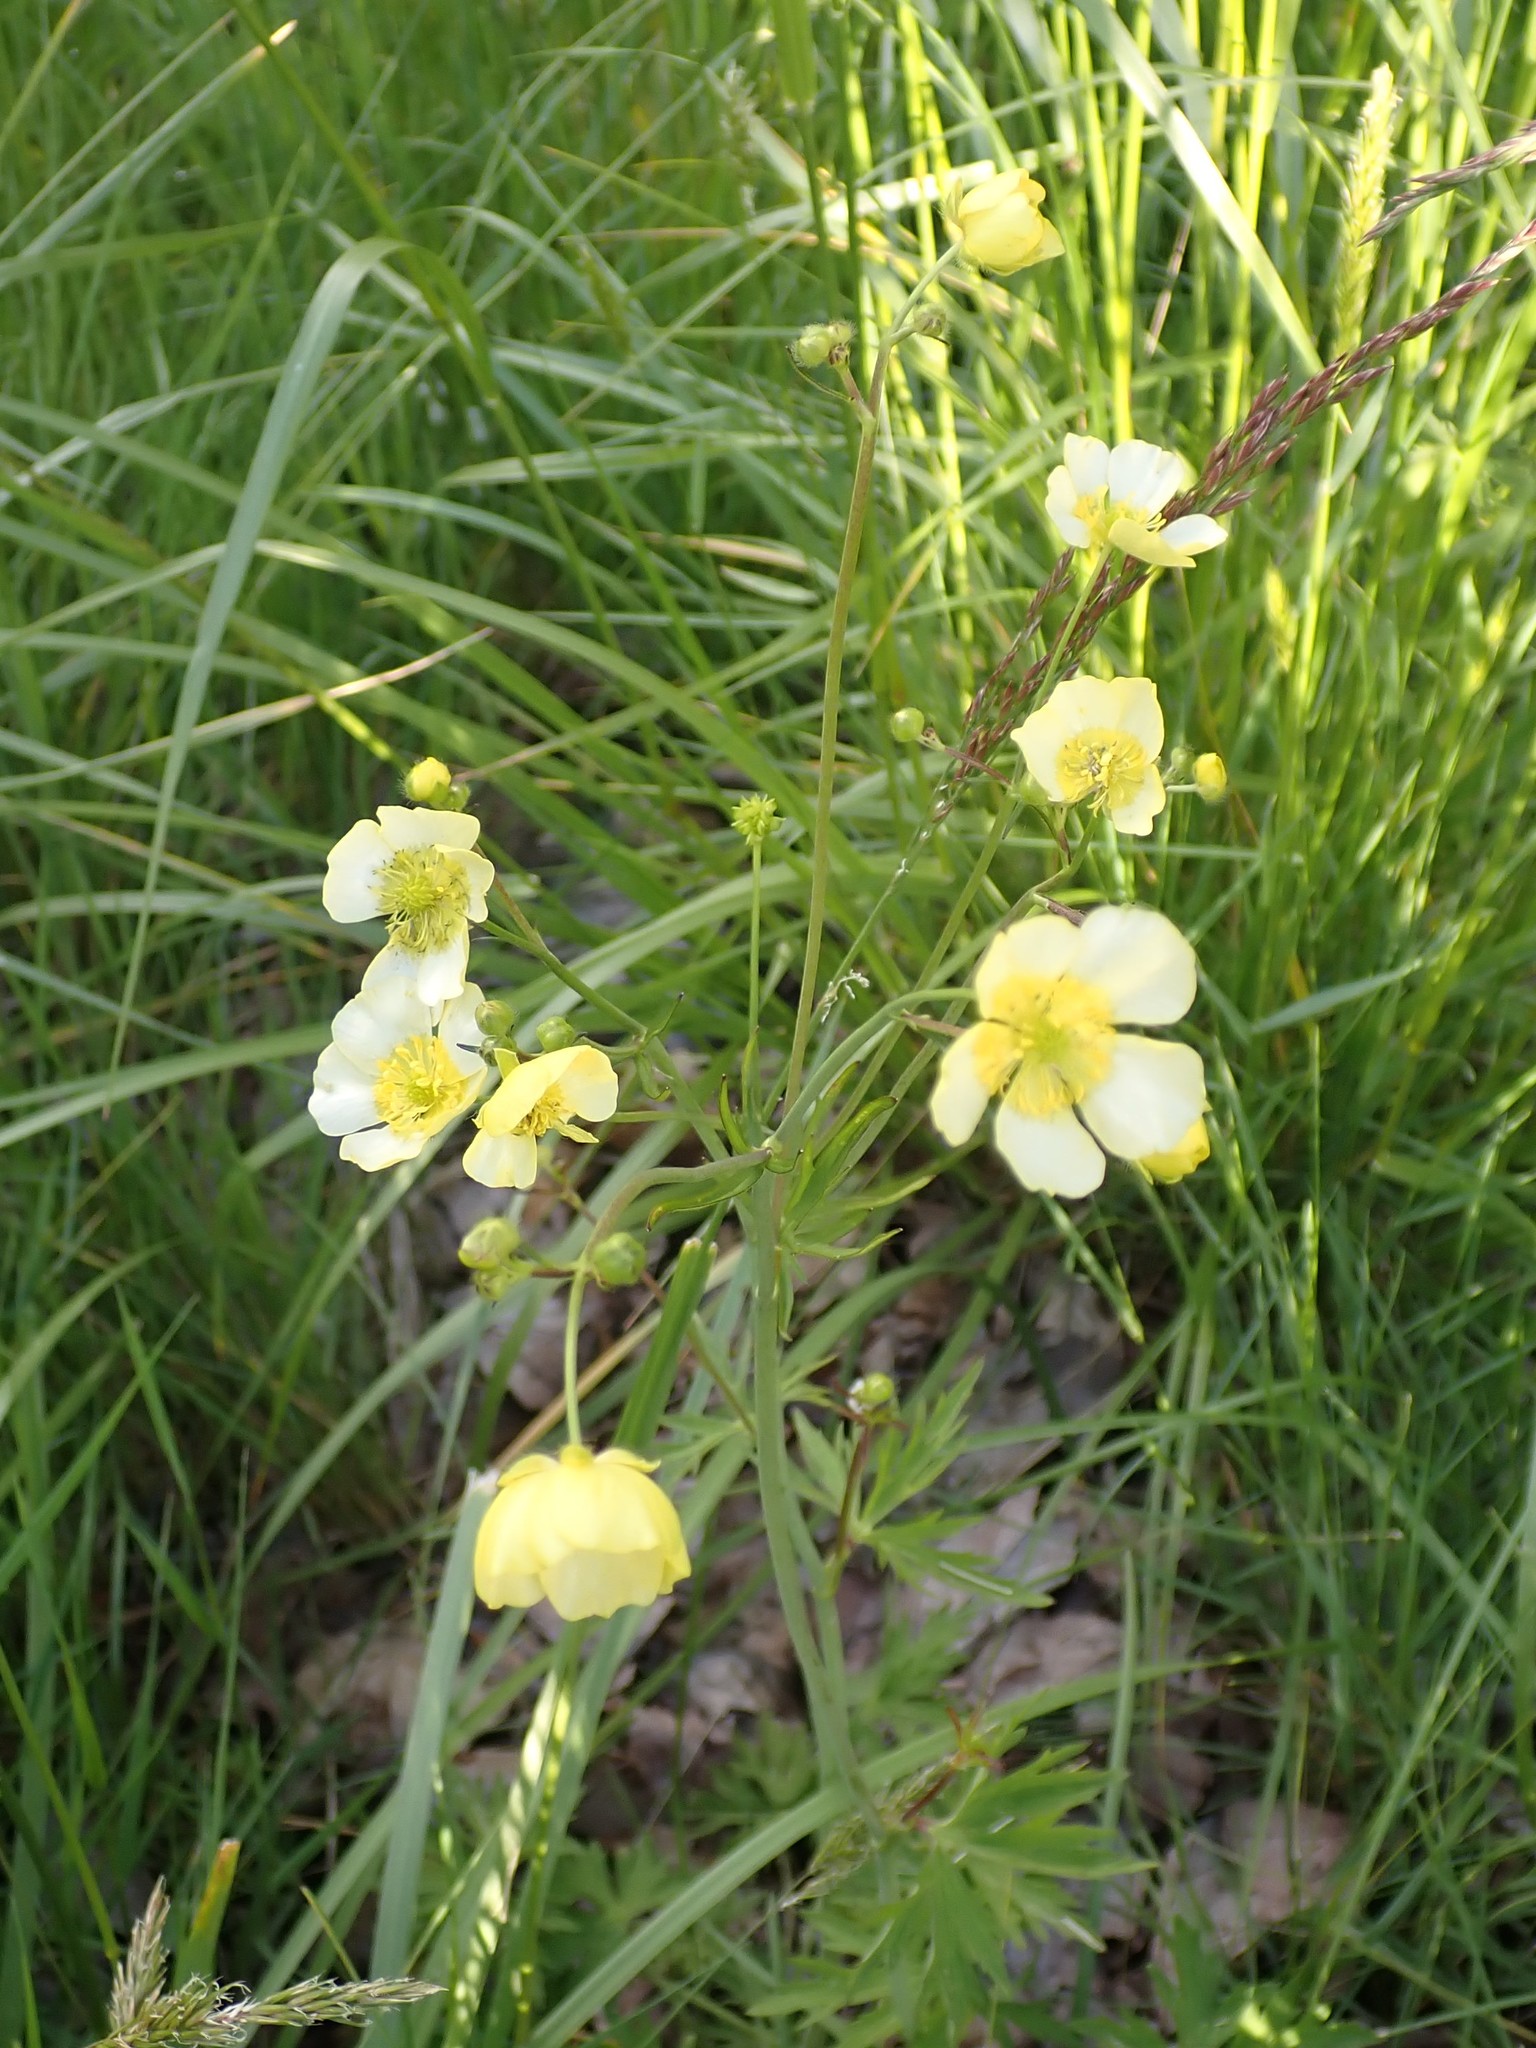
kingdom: Plantae
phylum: Tracheophyta
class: Magnoliopsida
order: Ranunculales
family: Ranunculaceae
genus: Ranunculus
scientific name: Ranunculus acris
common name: Meadow buttercup
